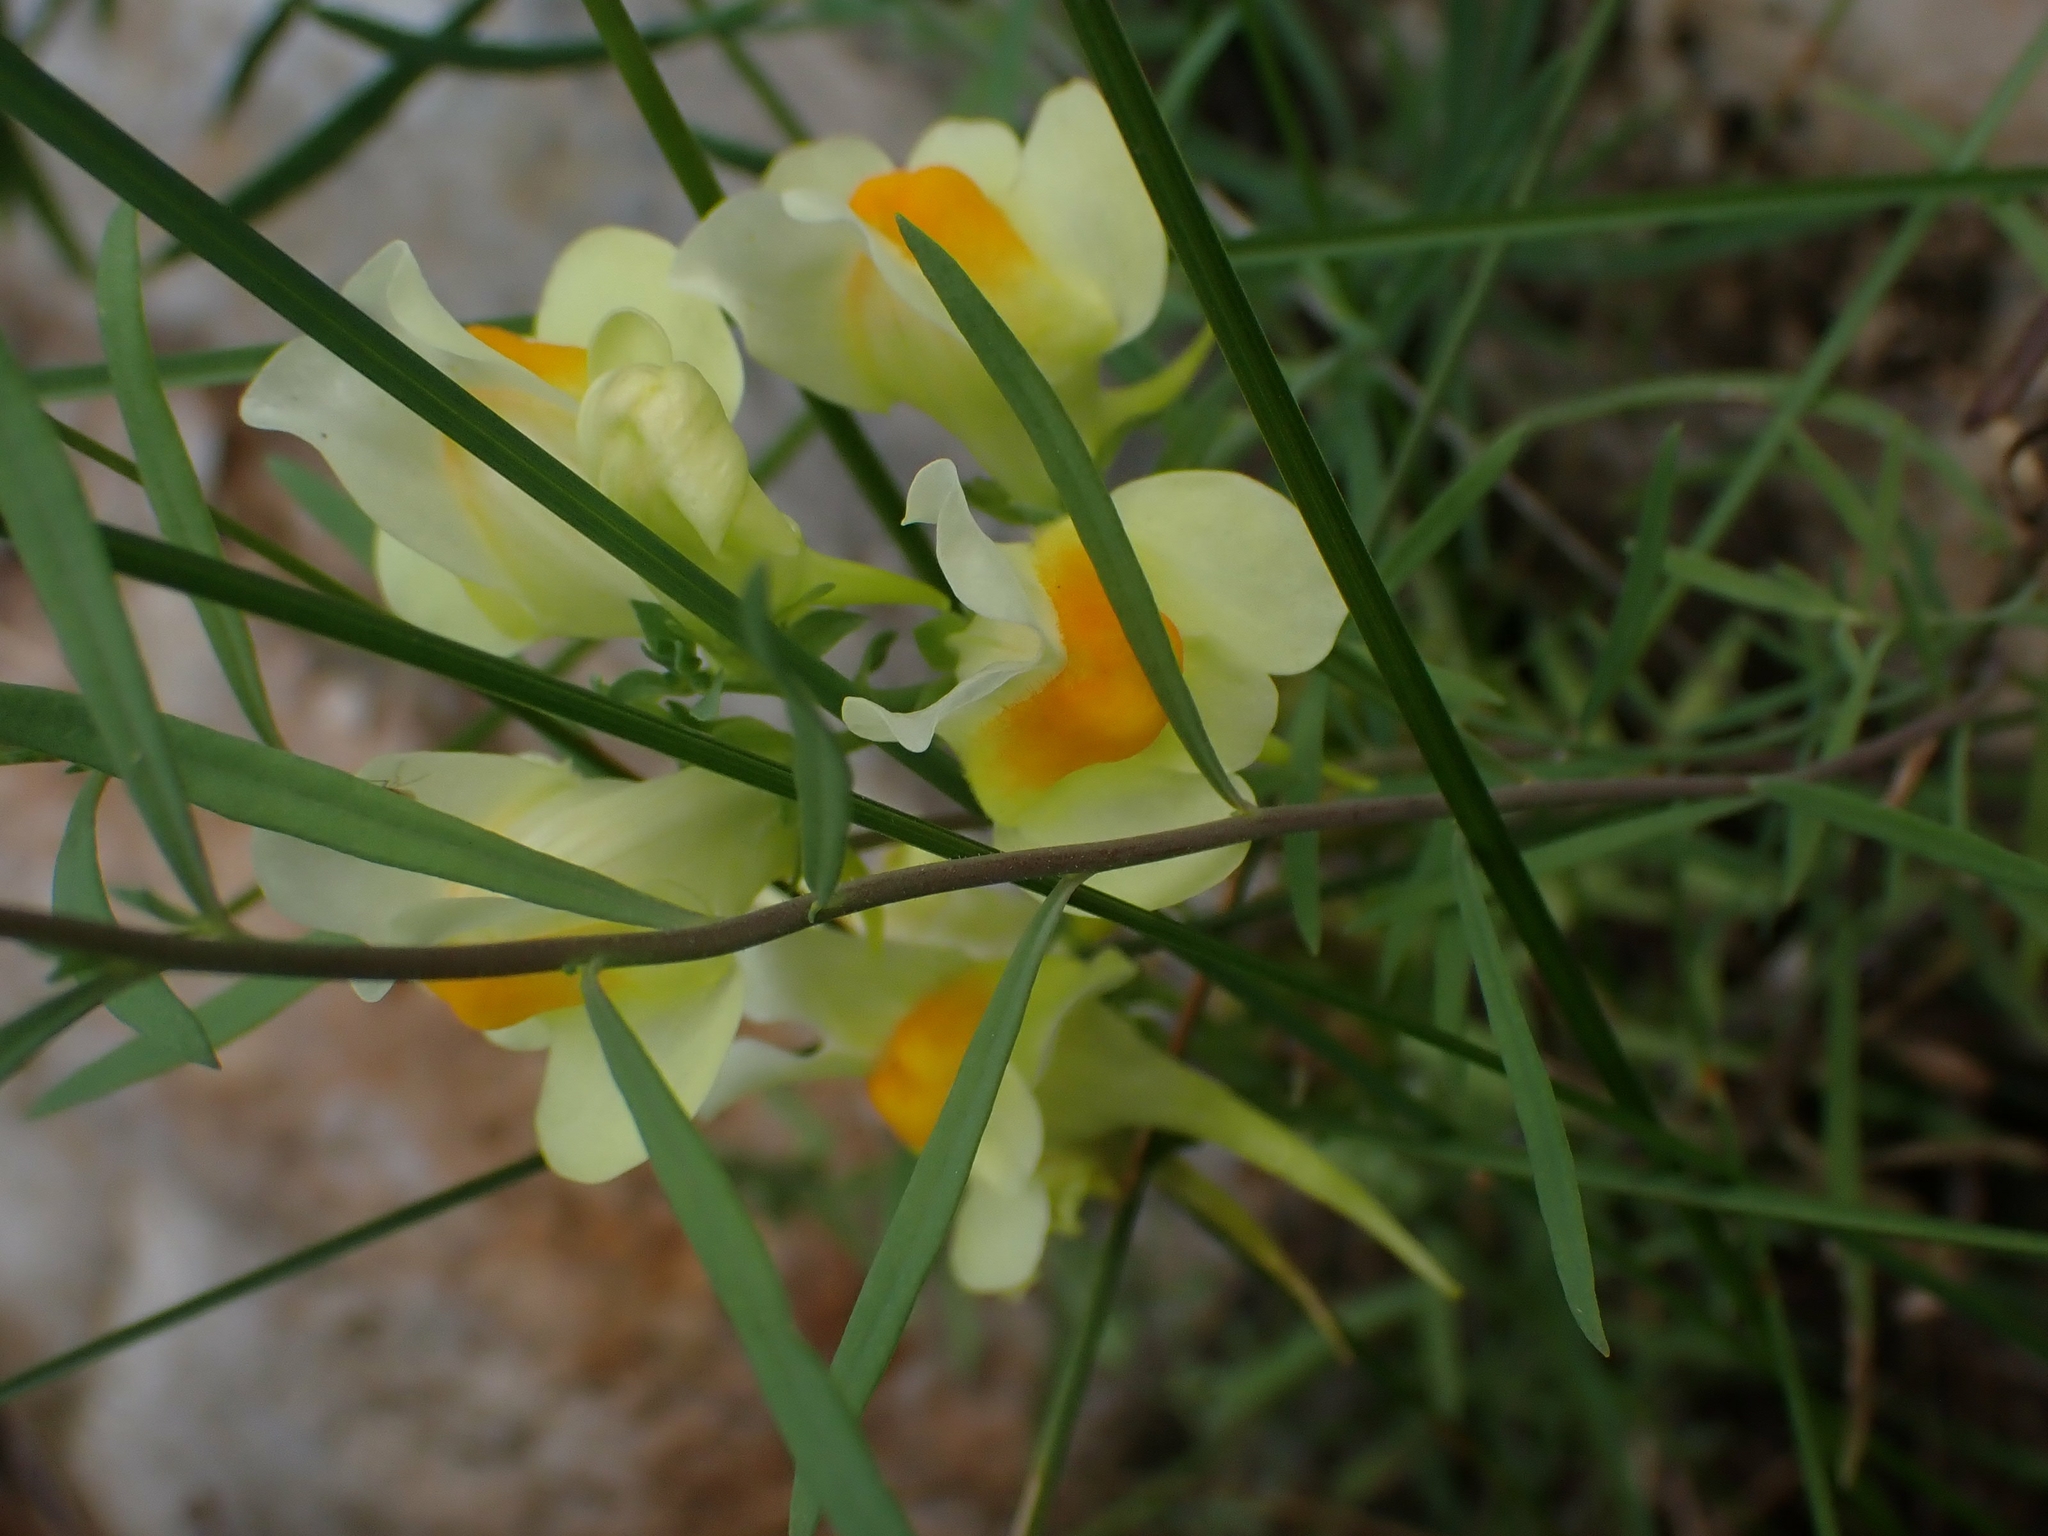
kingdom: Plantae
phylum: Tracheophyta
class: Magnoliopsida
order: Lamiales
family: Plantaginaceae
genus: Linaria
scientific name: Linaria vulgaris
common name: Butter and eggs
